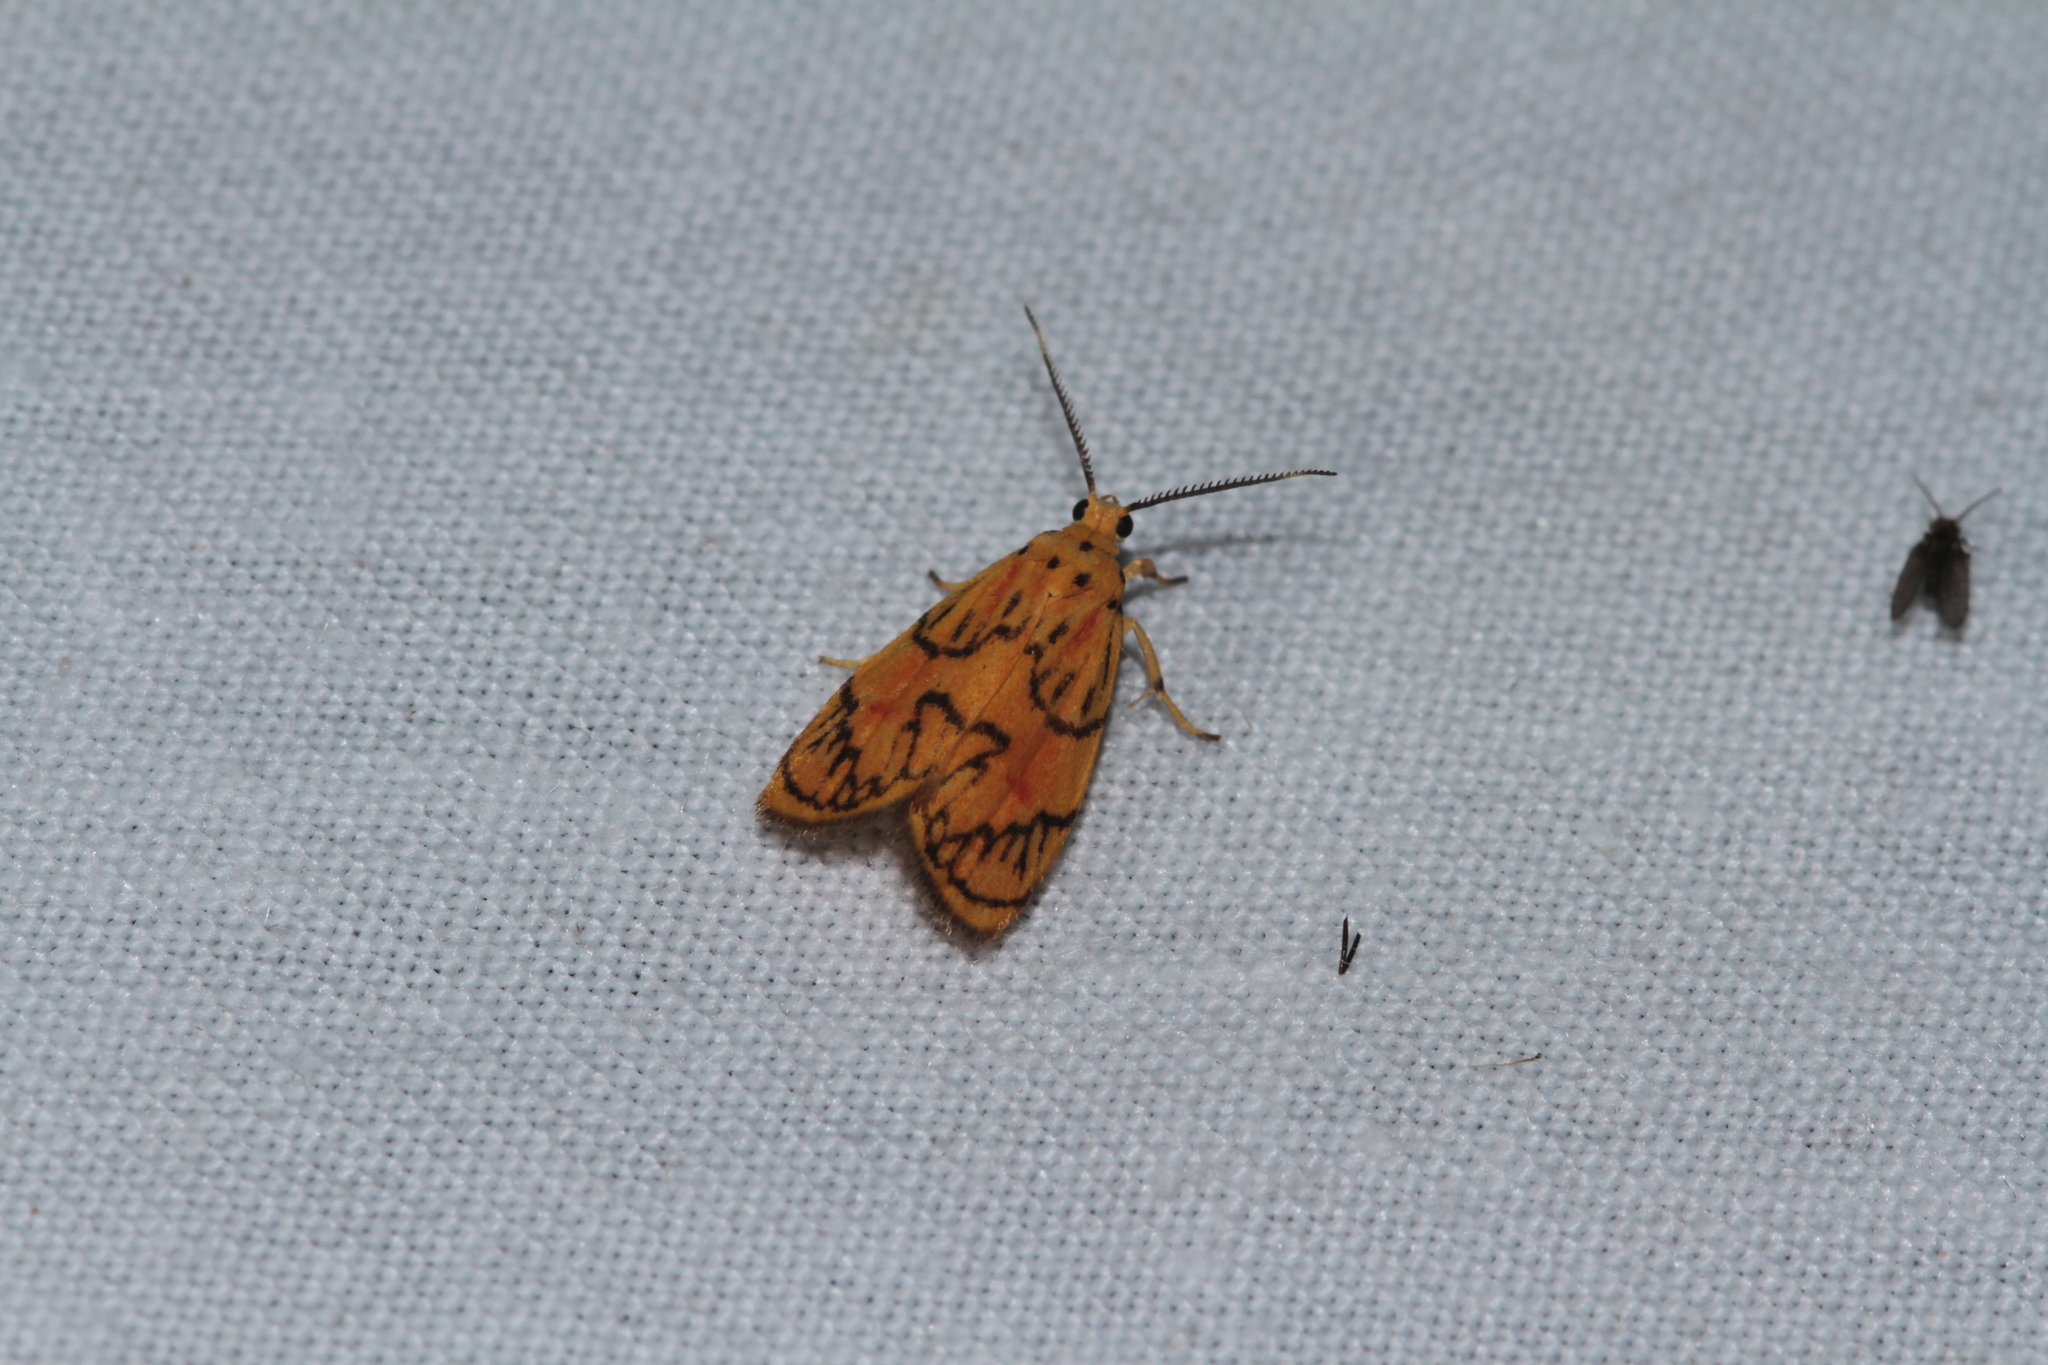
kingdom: Animalia
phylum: Arthropoda
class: Insecta
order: Lepidoptera
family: Erebidae
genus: Prepiella
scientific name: Prepiella radicans
